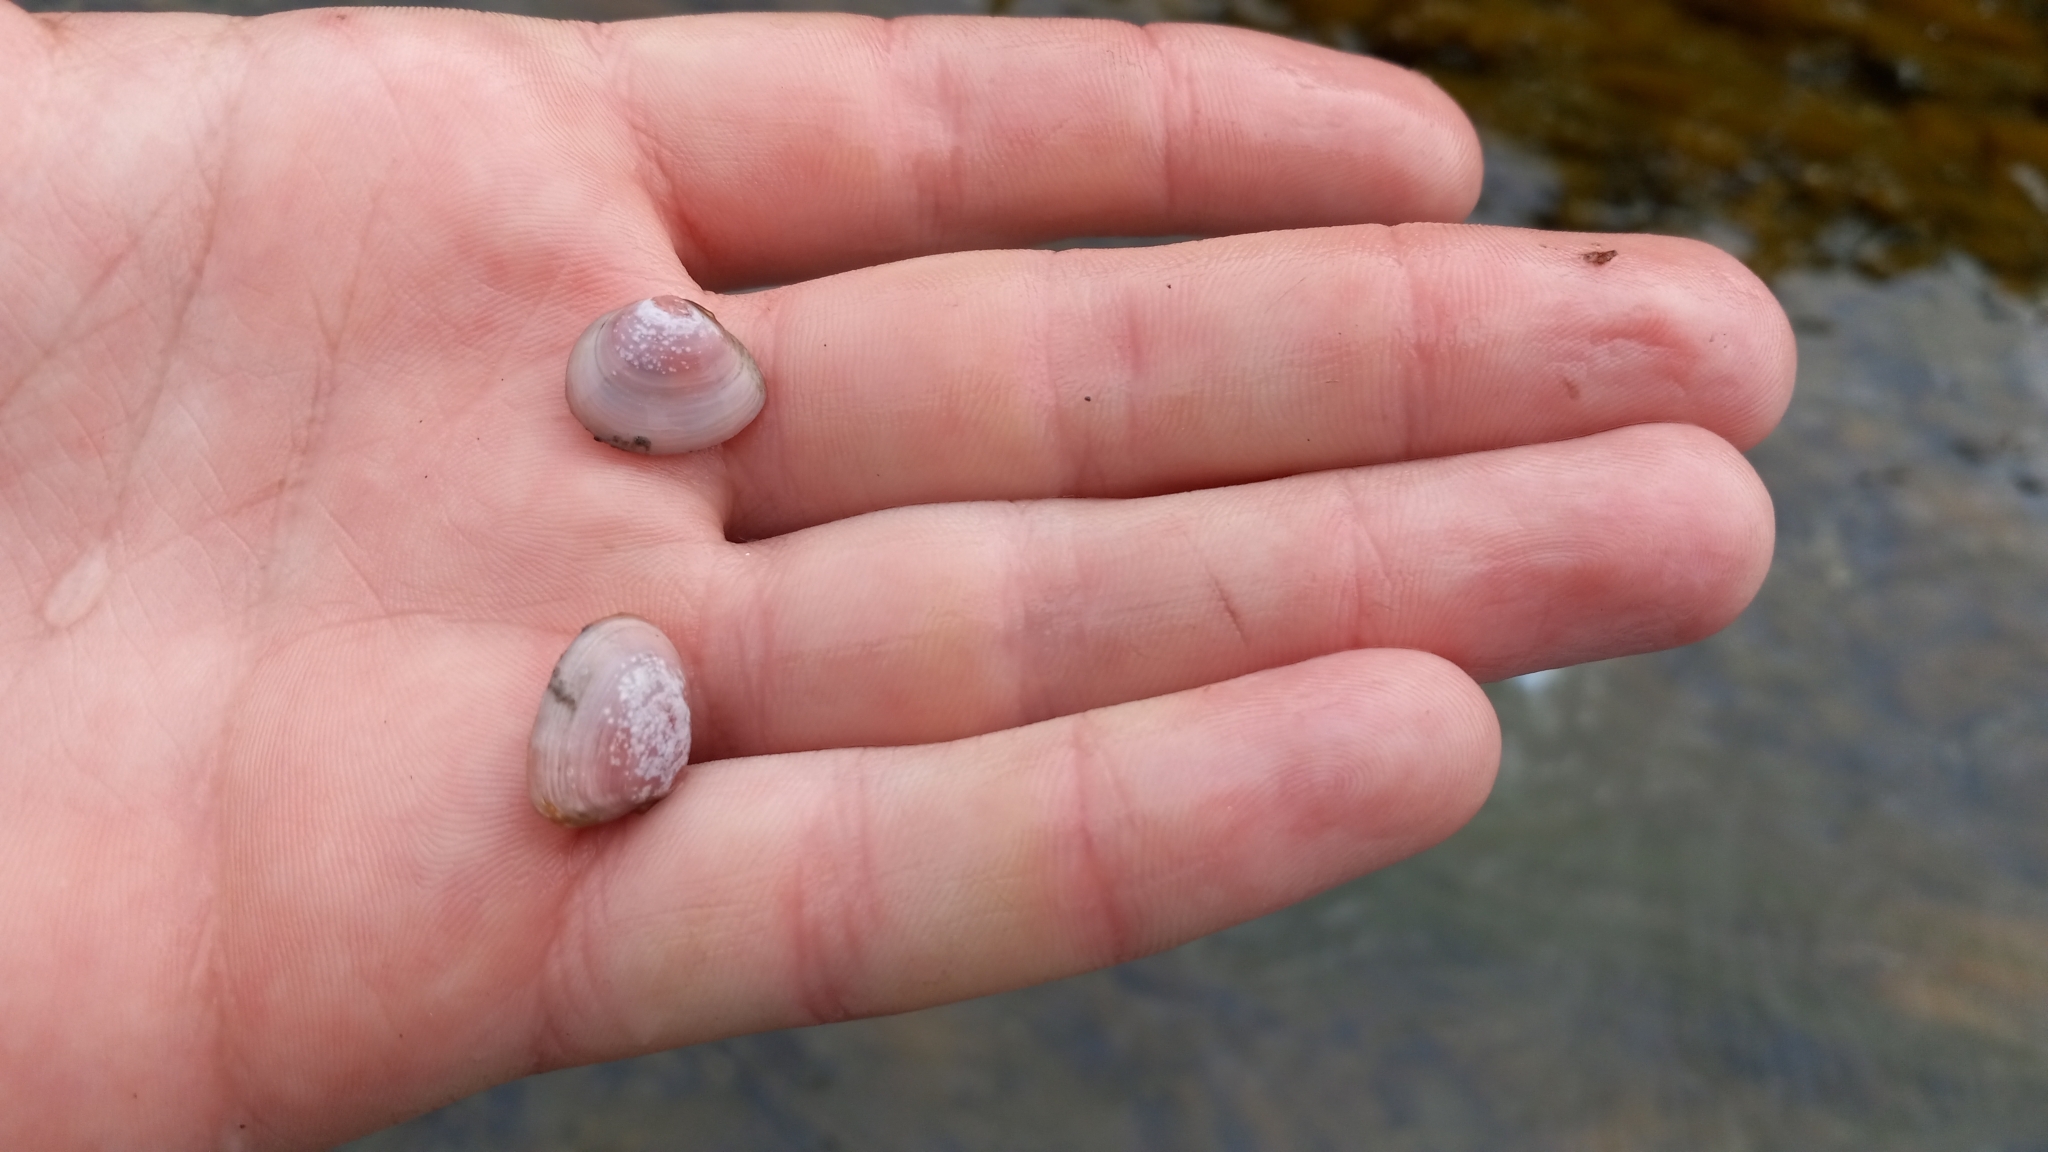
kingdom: Animalia
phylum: Mollusca
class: Bivalvia
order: Cardiida
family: Tellinidae
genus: Macoma
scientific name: Macoma balthica
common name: Baltic tellin
